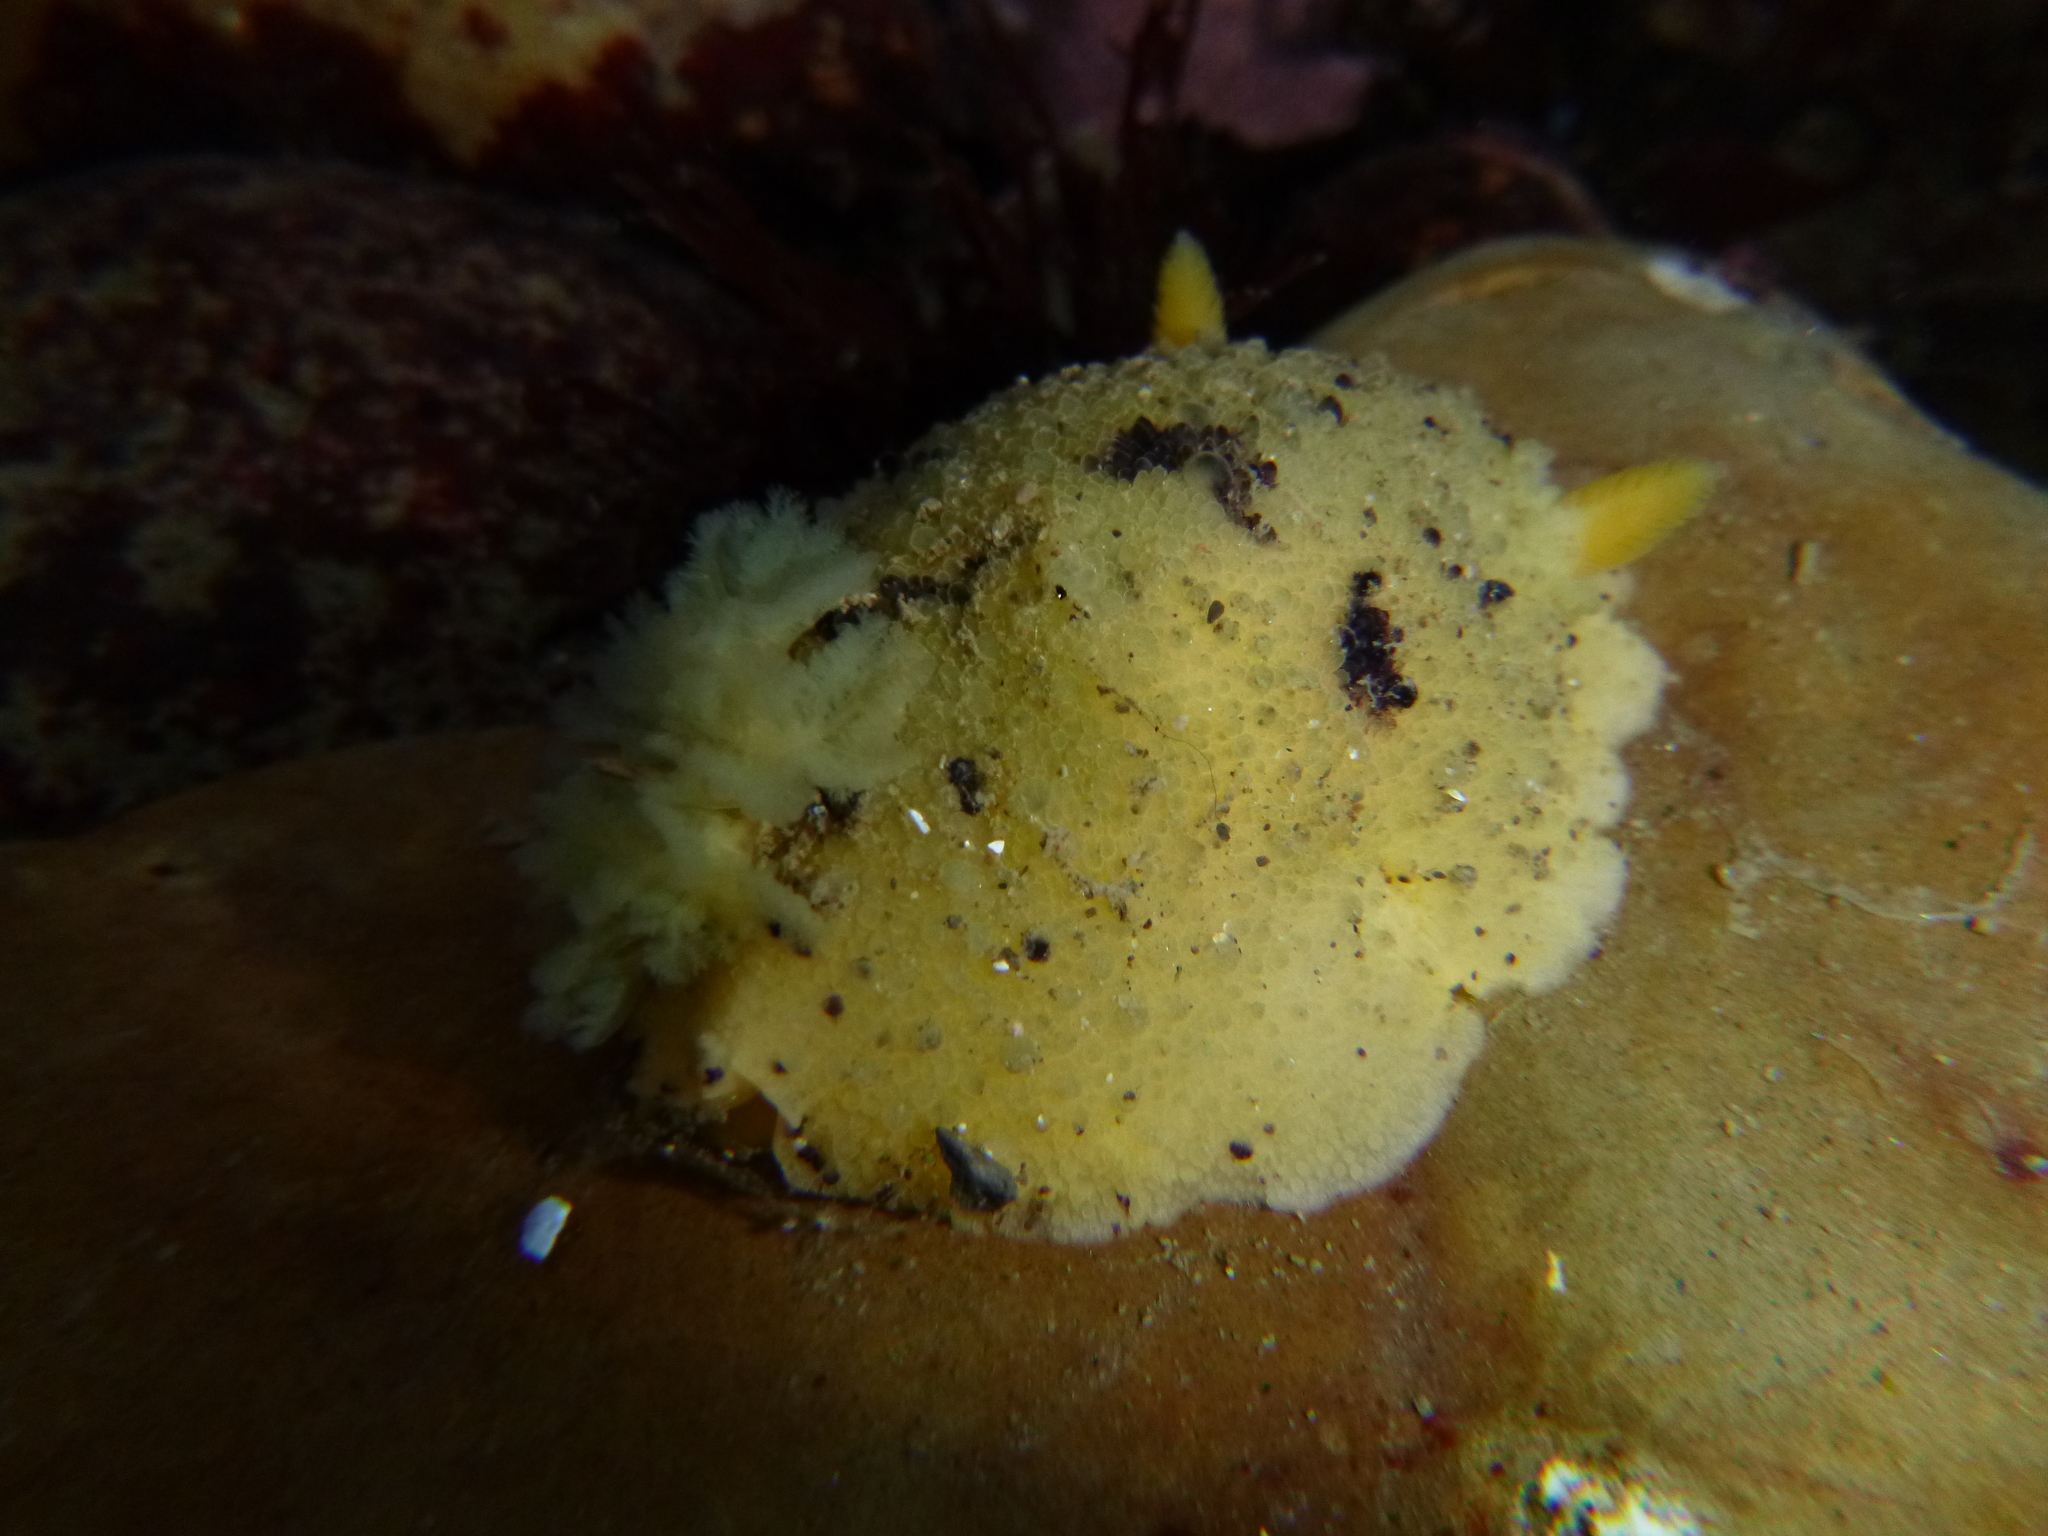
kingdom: Animalia
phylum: Mollusca
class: Gastropoda
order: Nudibranchia
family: Dorididae
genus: Doris
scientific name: Doris montereyensis
